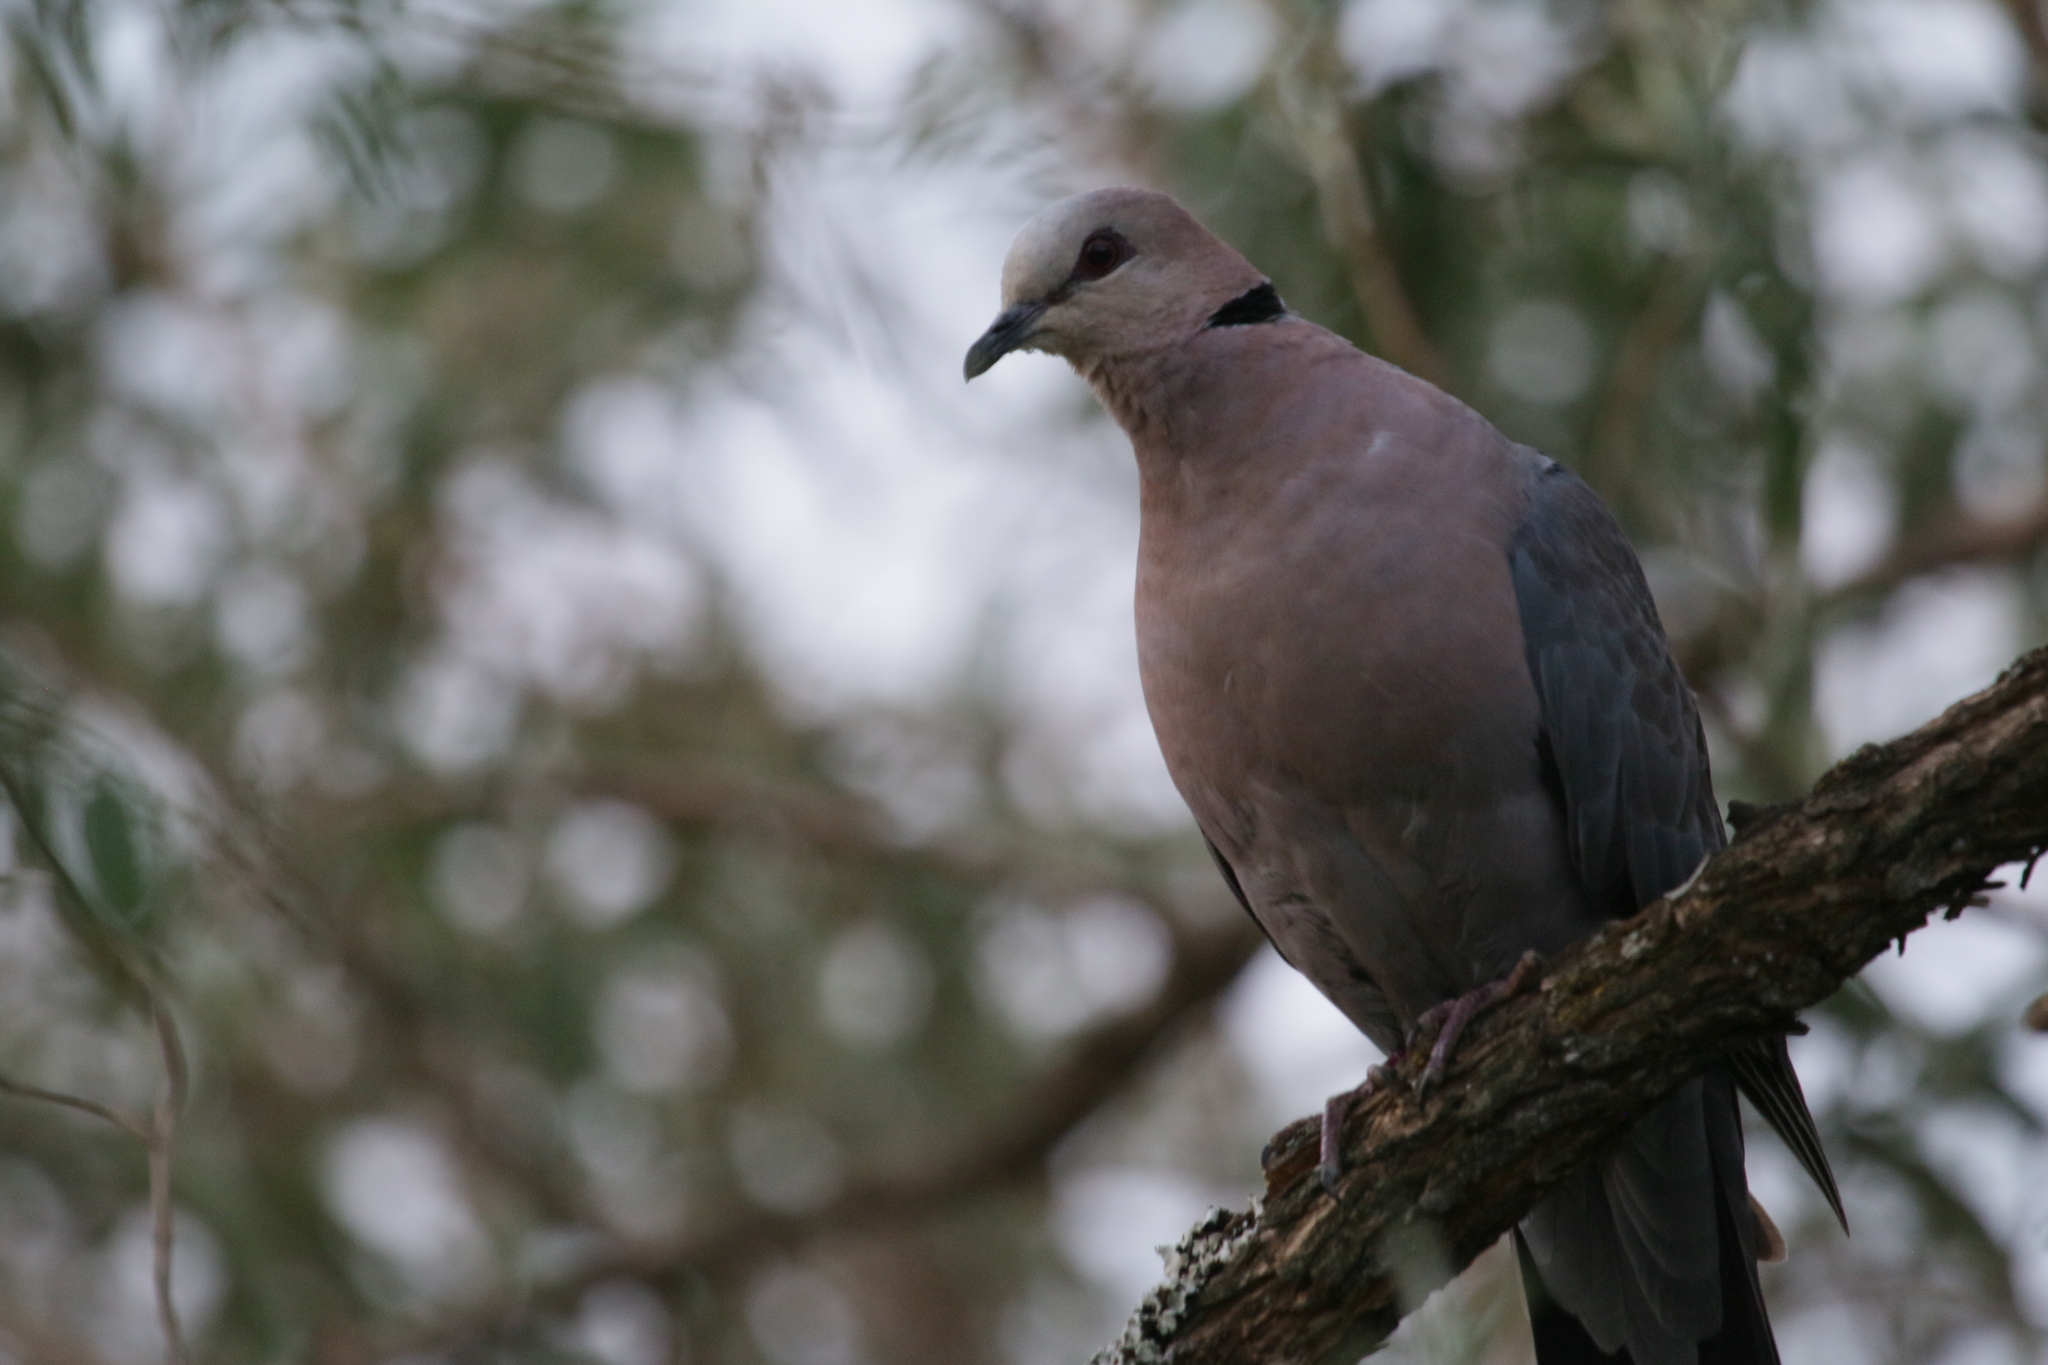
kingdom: Animalia
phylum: Chordata
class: Aves
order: Columbiformes
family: Columbidae
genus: Streptopelia
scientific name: Streptopelia semitorquata
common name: Red-eyed dove
